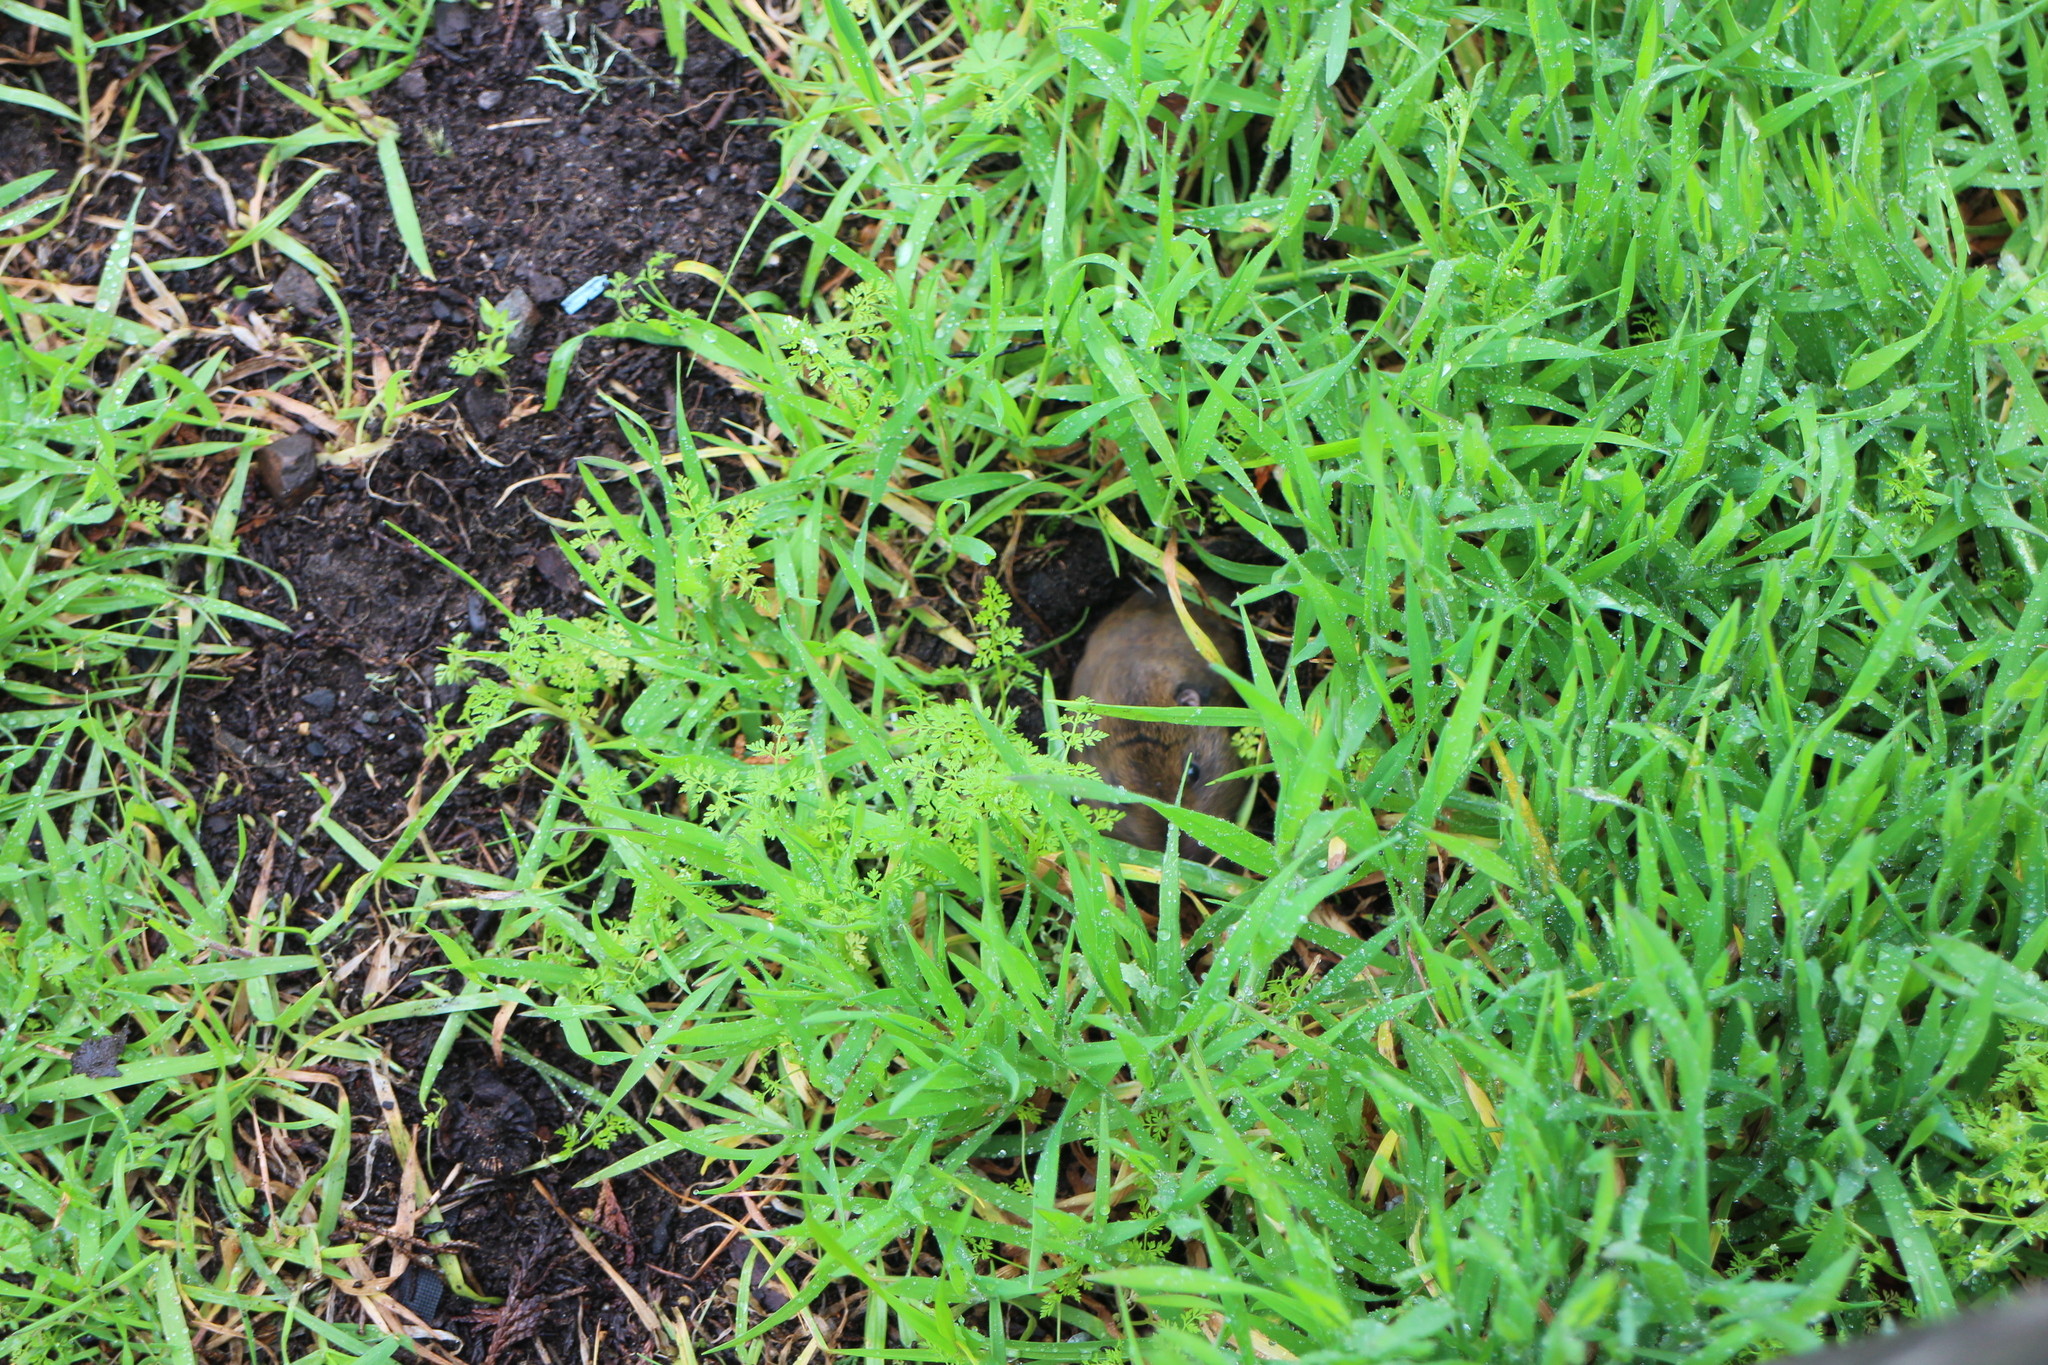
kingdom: Animalia
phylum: Chordata
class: Mammalia
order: Rodentia
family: Geomyidae
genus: Thomomys
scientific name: Thomomys bottae
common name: Botta's pocket gopher
